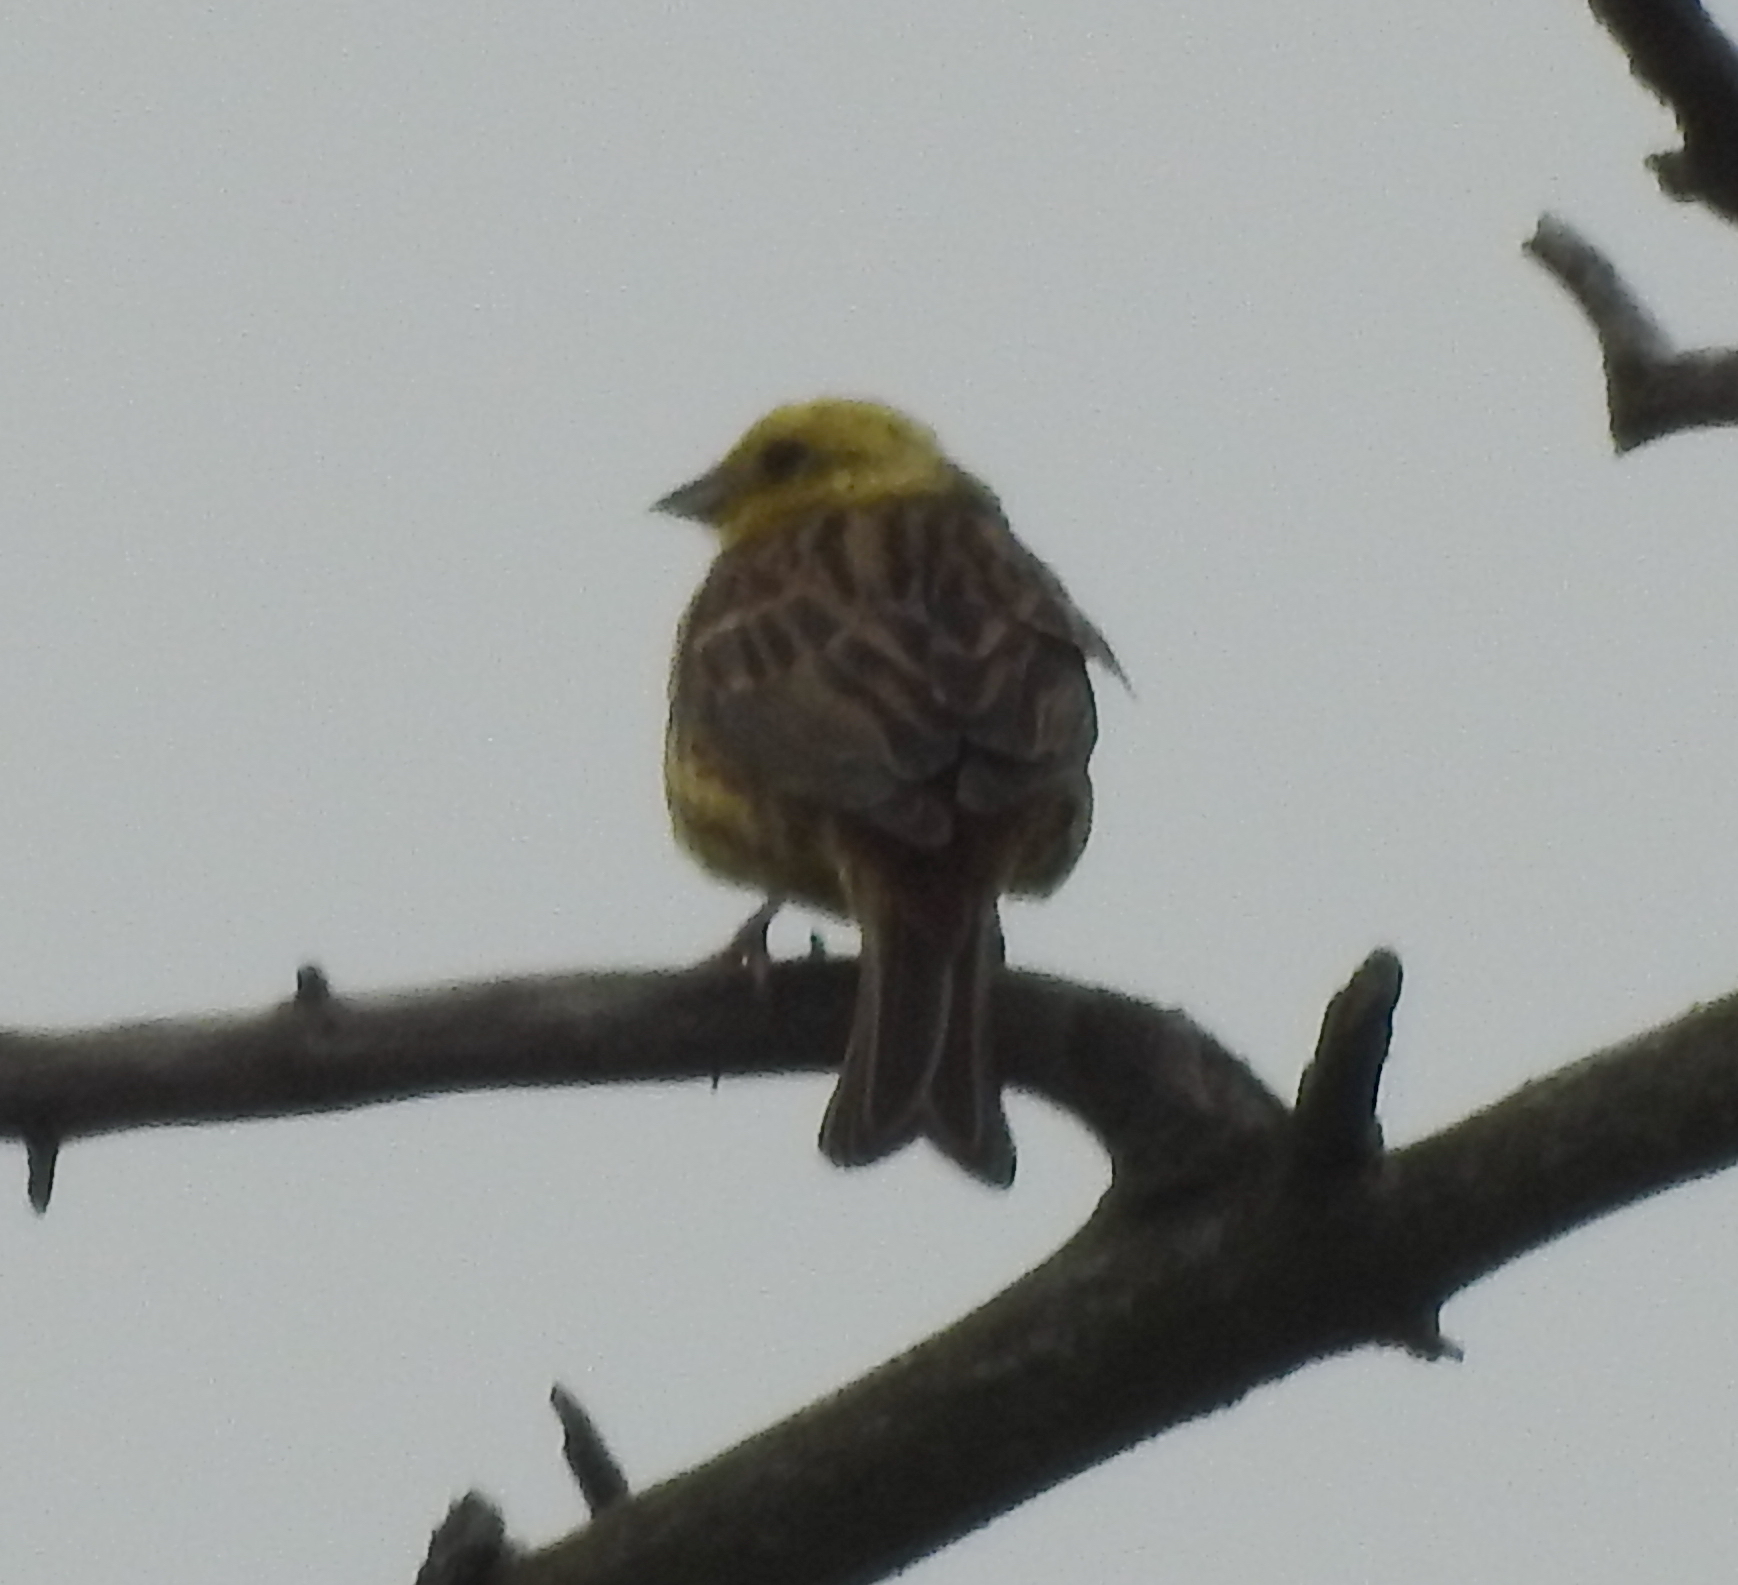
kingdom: Animalia
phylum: Chordata
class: Aves
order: Passeriformes
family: Emberizidae
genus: Emberiza
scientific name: Emberiza citrinella
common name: Yellowhammer
